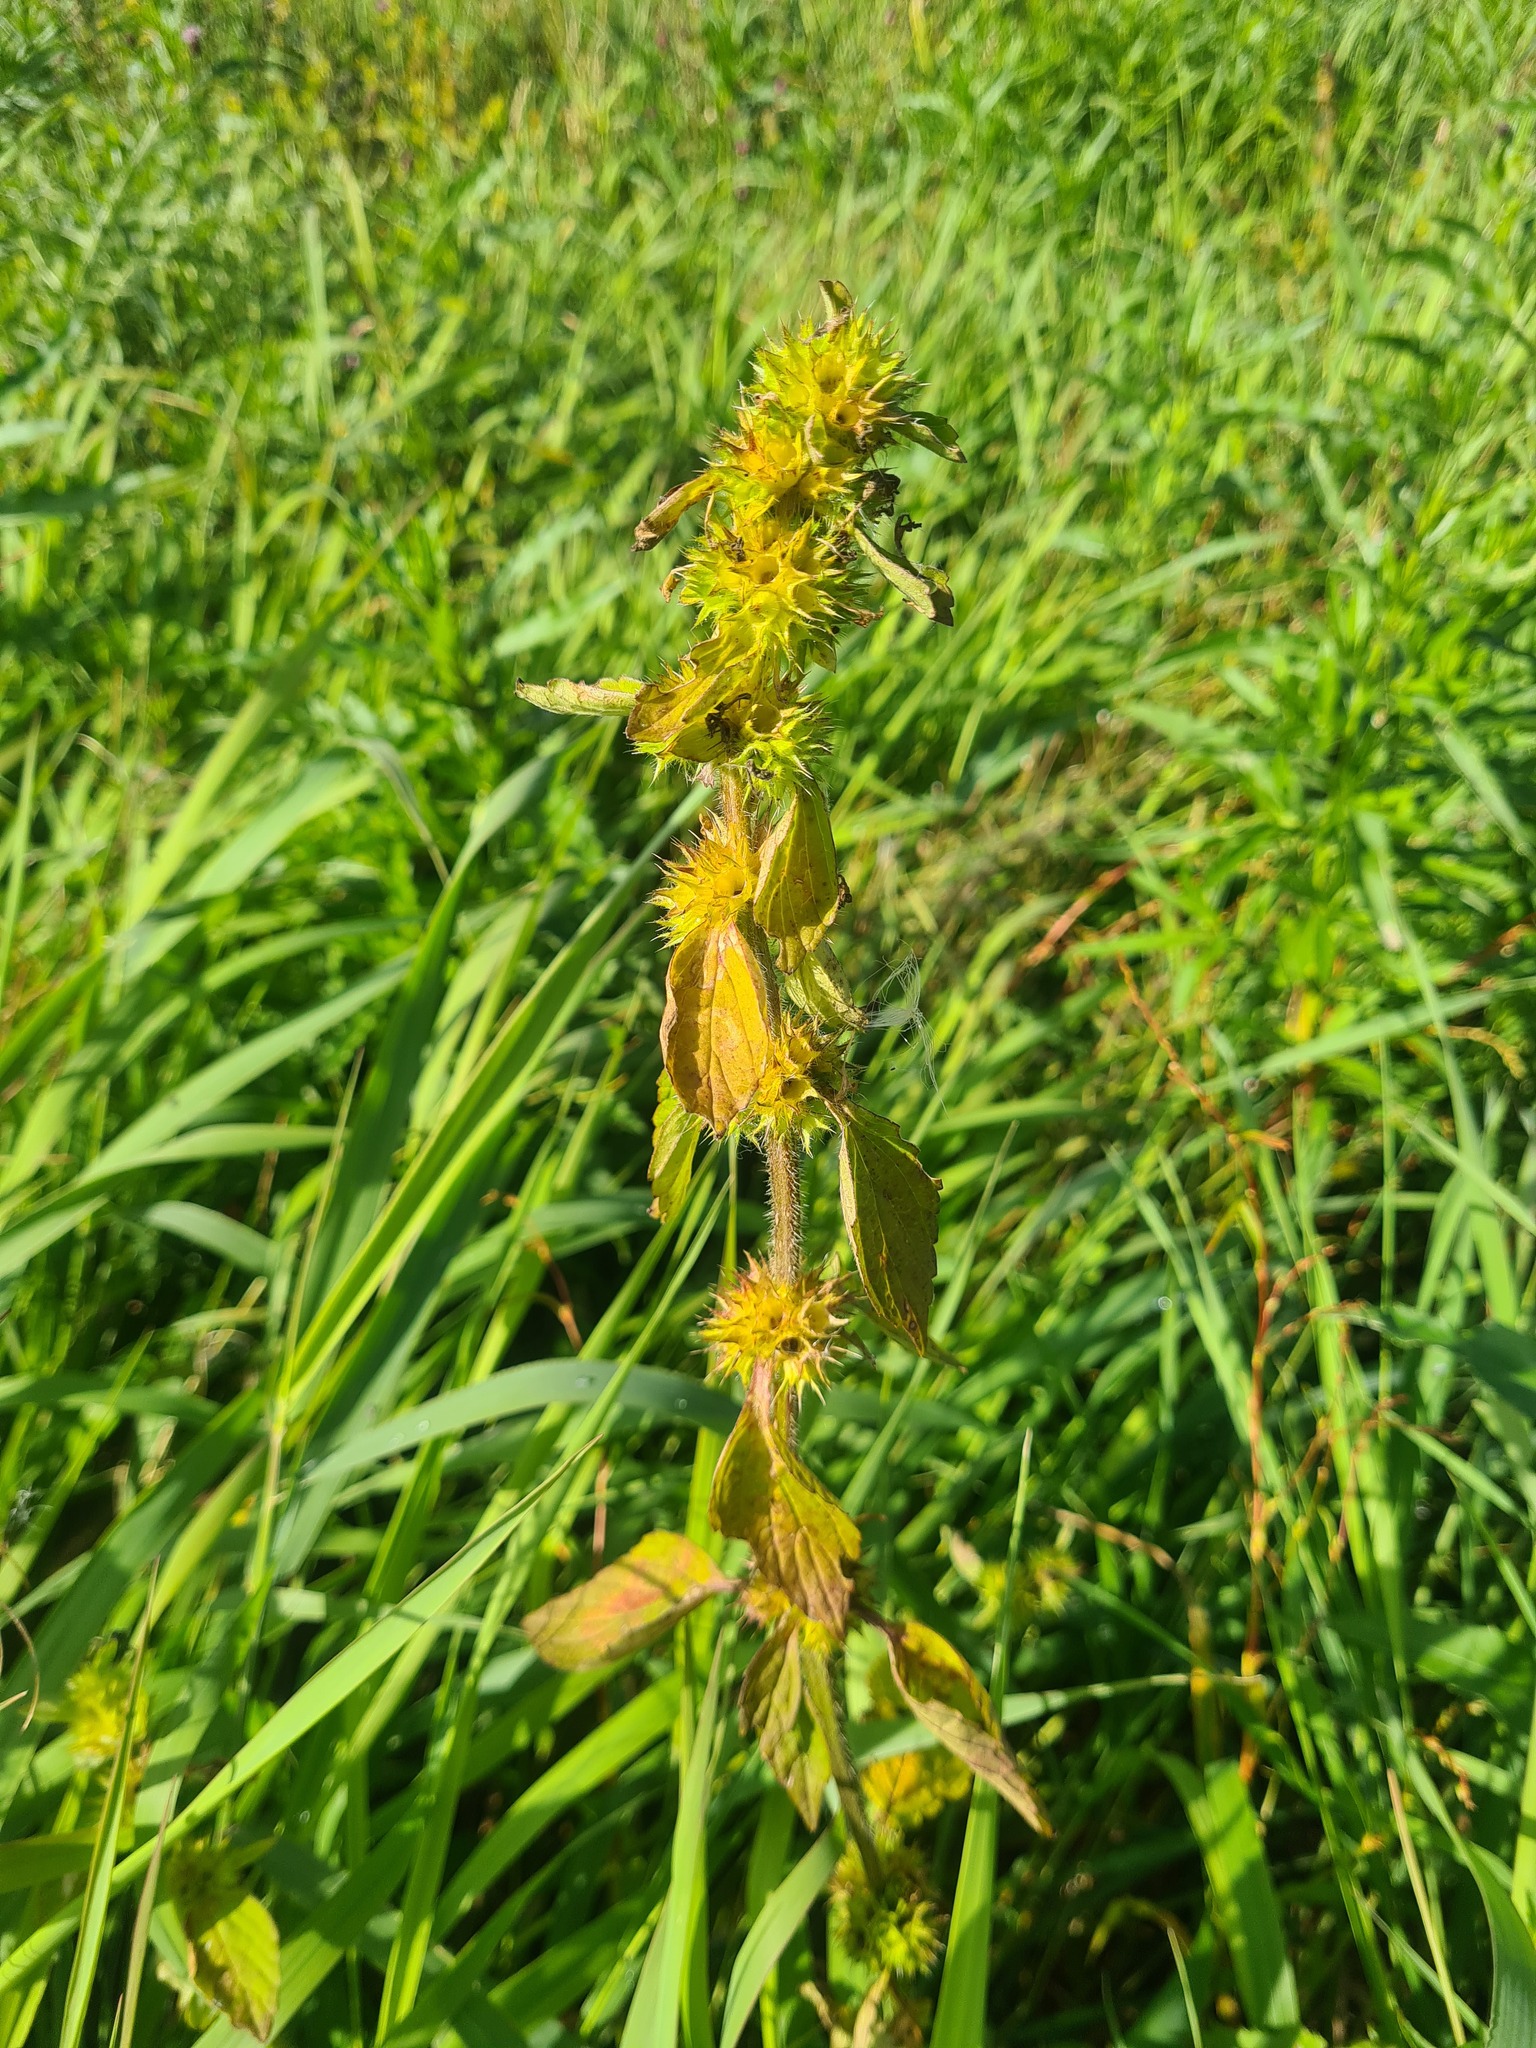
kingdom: Plantae
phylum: Tracheophyta
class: Magnoliopsida
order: Lamiales
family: Lamiaceae
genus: Galeopsis
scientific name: Galeopsis bifida
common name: Bifid hemp-nettle
